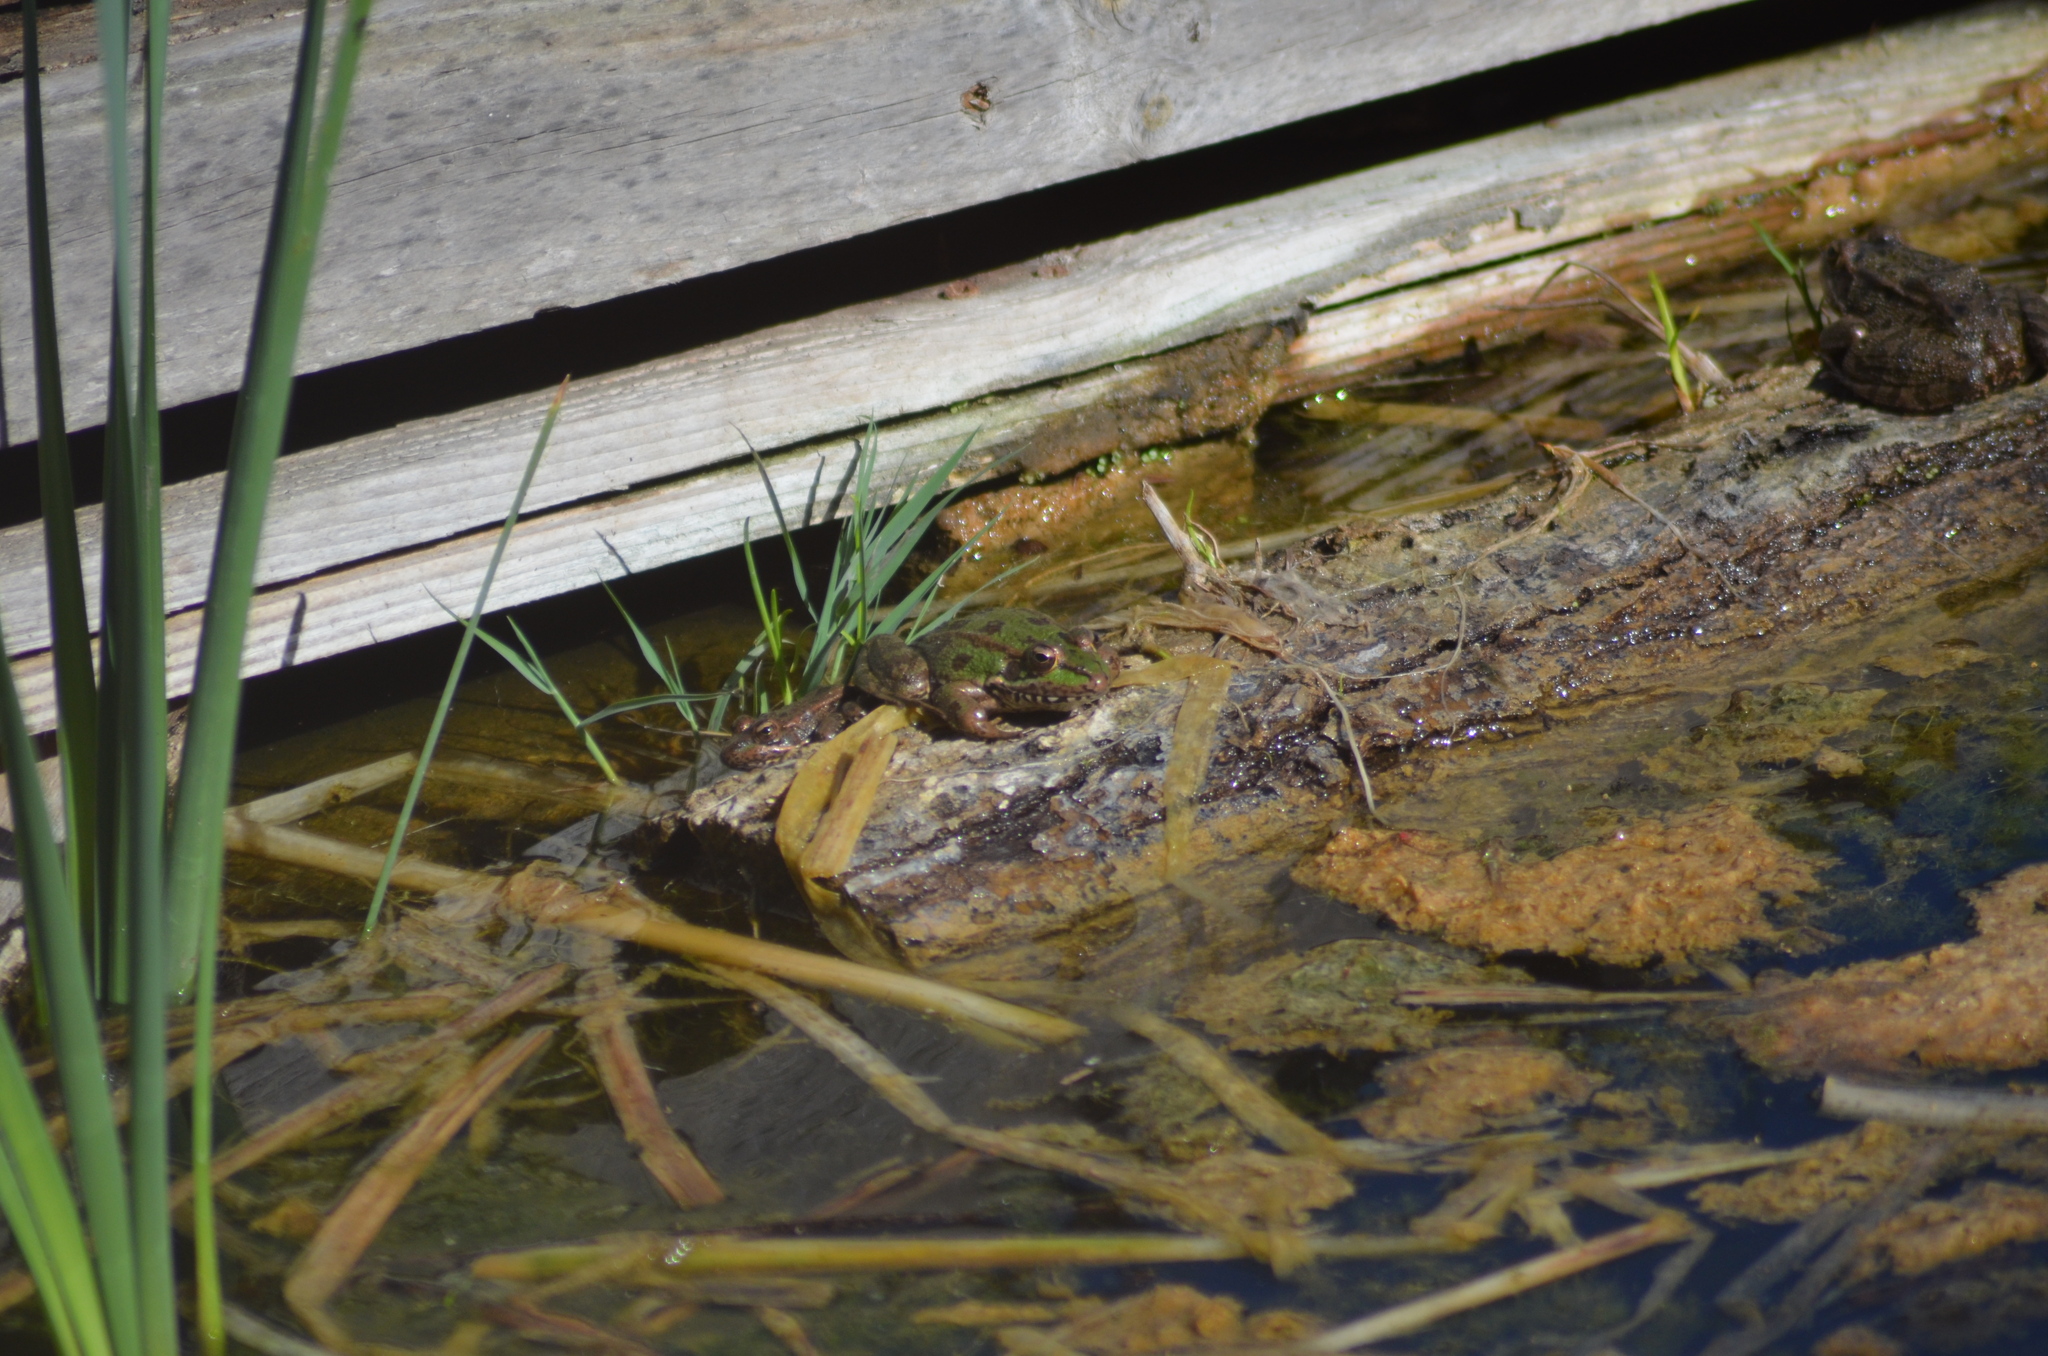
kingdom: Animalia
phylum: Chordata
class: Amphibia
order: Anura
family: Ranidae
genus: Pelophylax
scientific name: Pelophylax perezi
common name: Perez's frog
